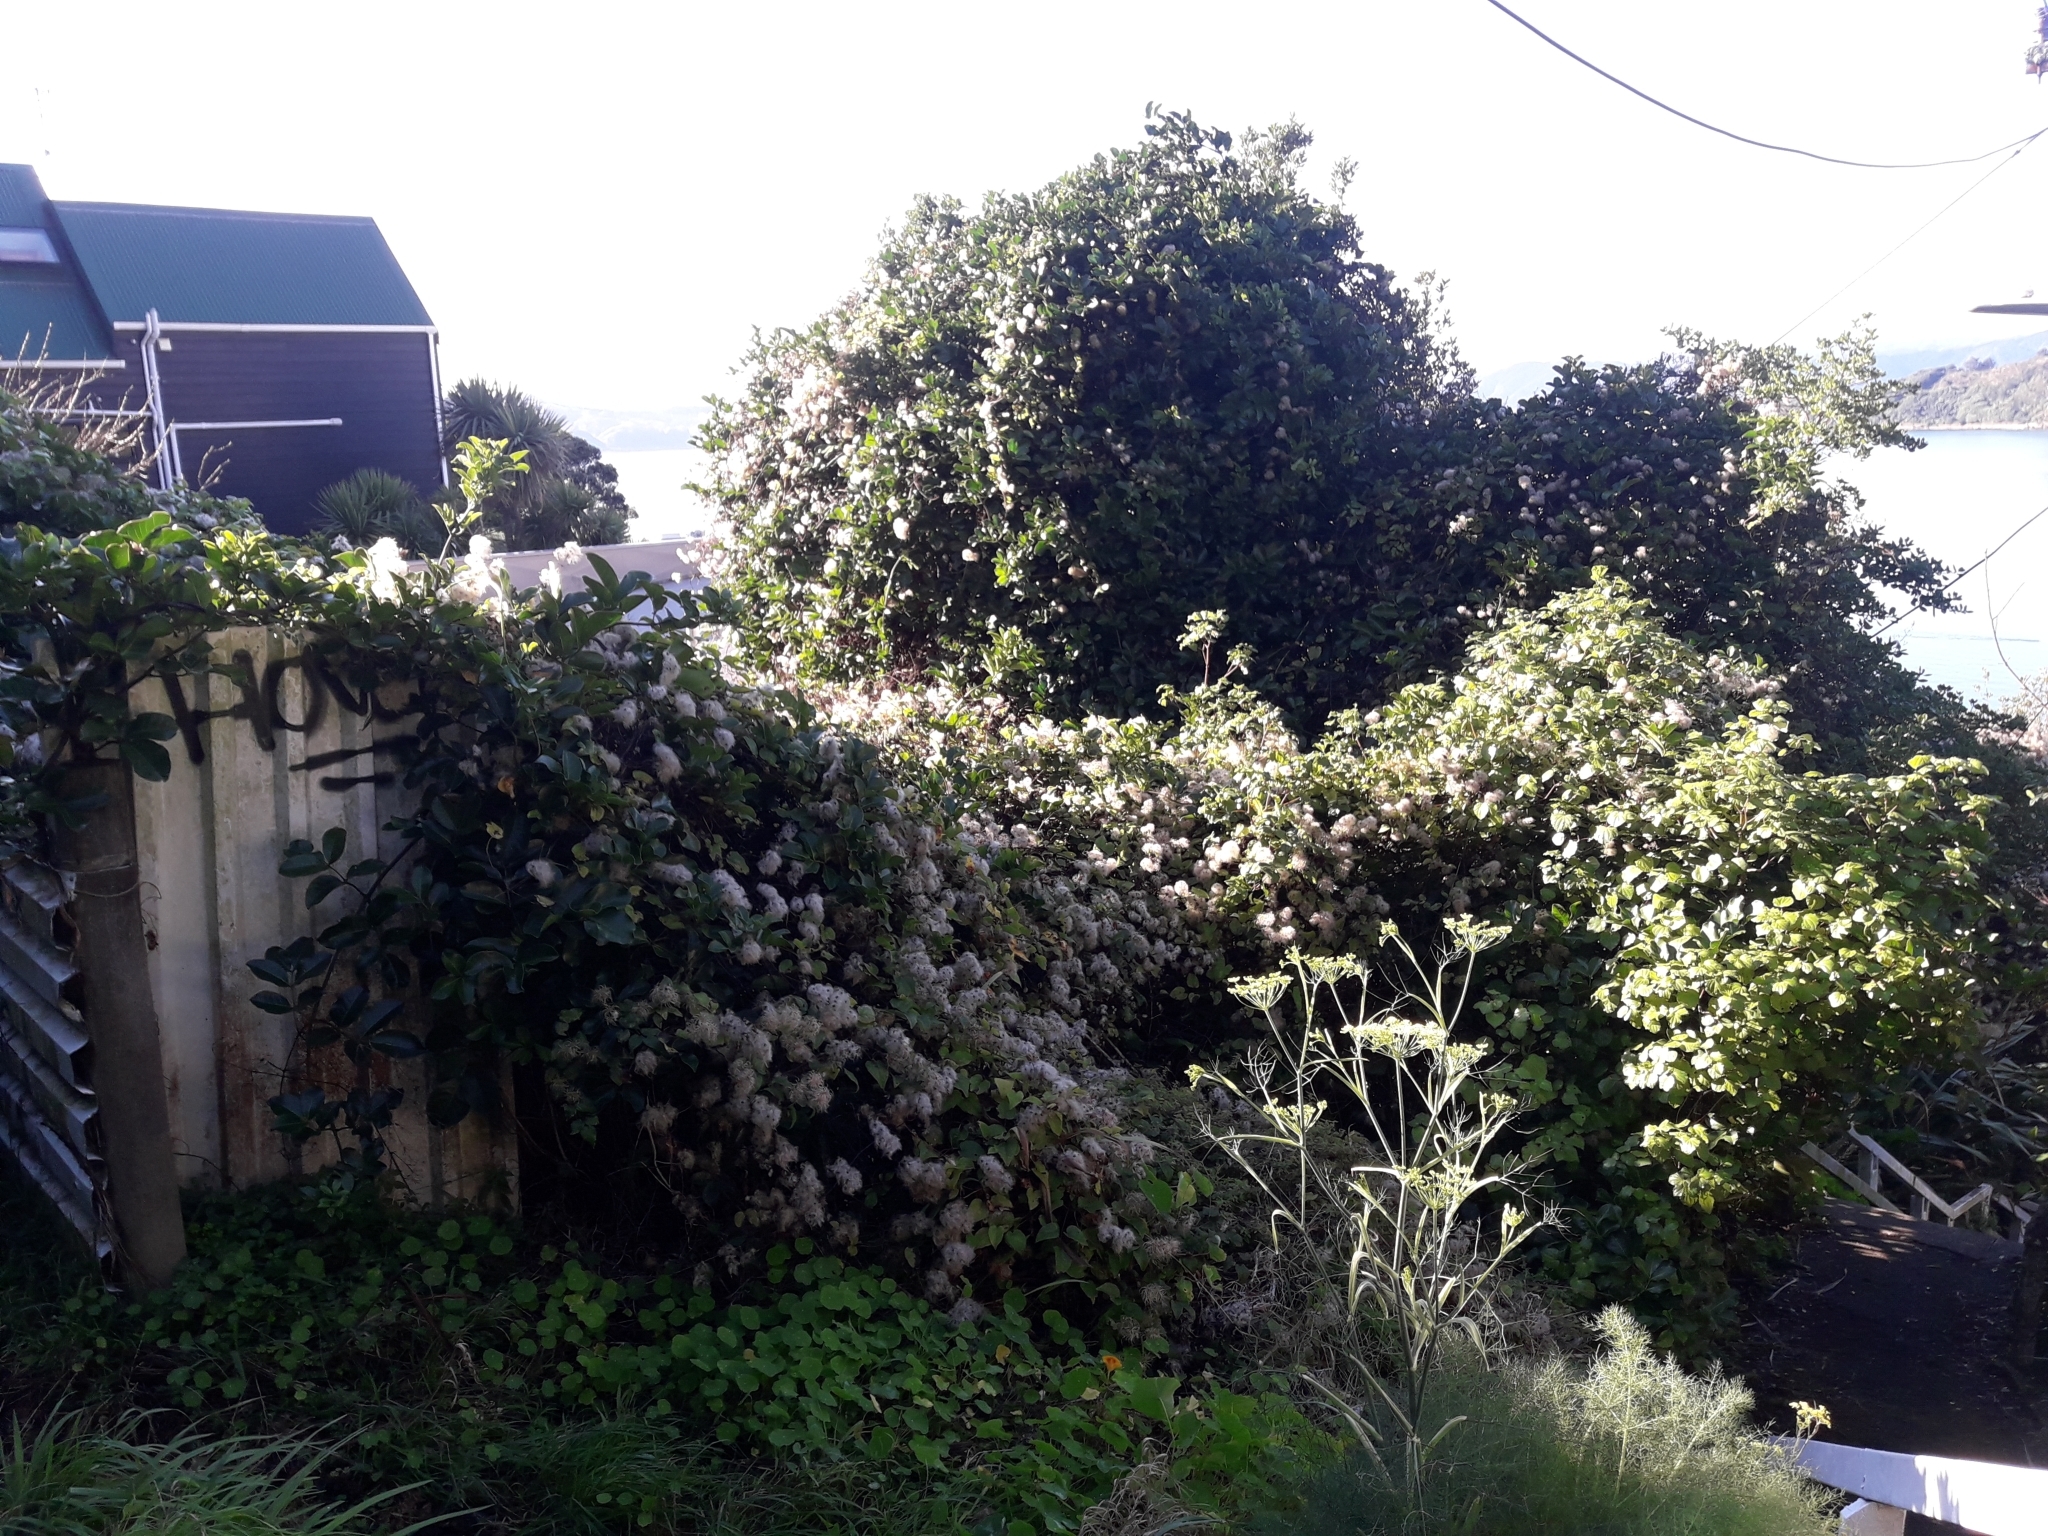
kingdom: Plantae
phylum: Tracheophyta
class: Magnoliopsida
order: Ranunculales
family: Ranunculaceae
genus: Clematis
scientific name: Clematis vitalba
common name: Evergreen clematis
